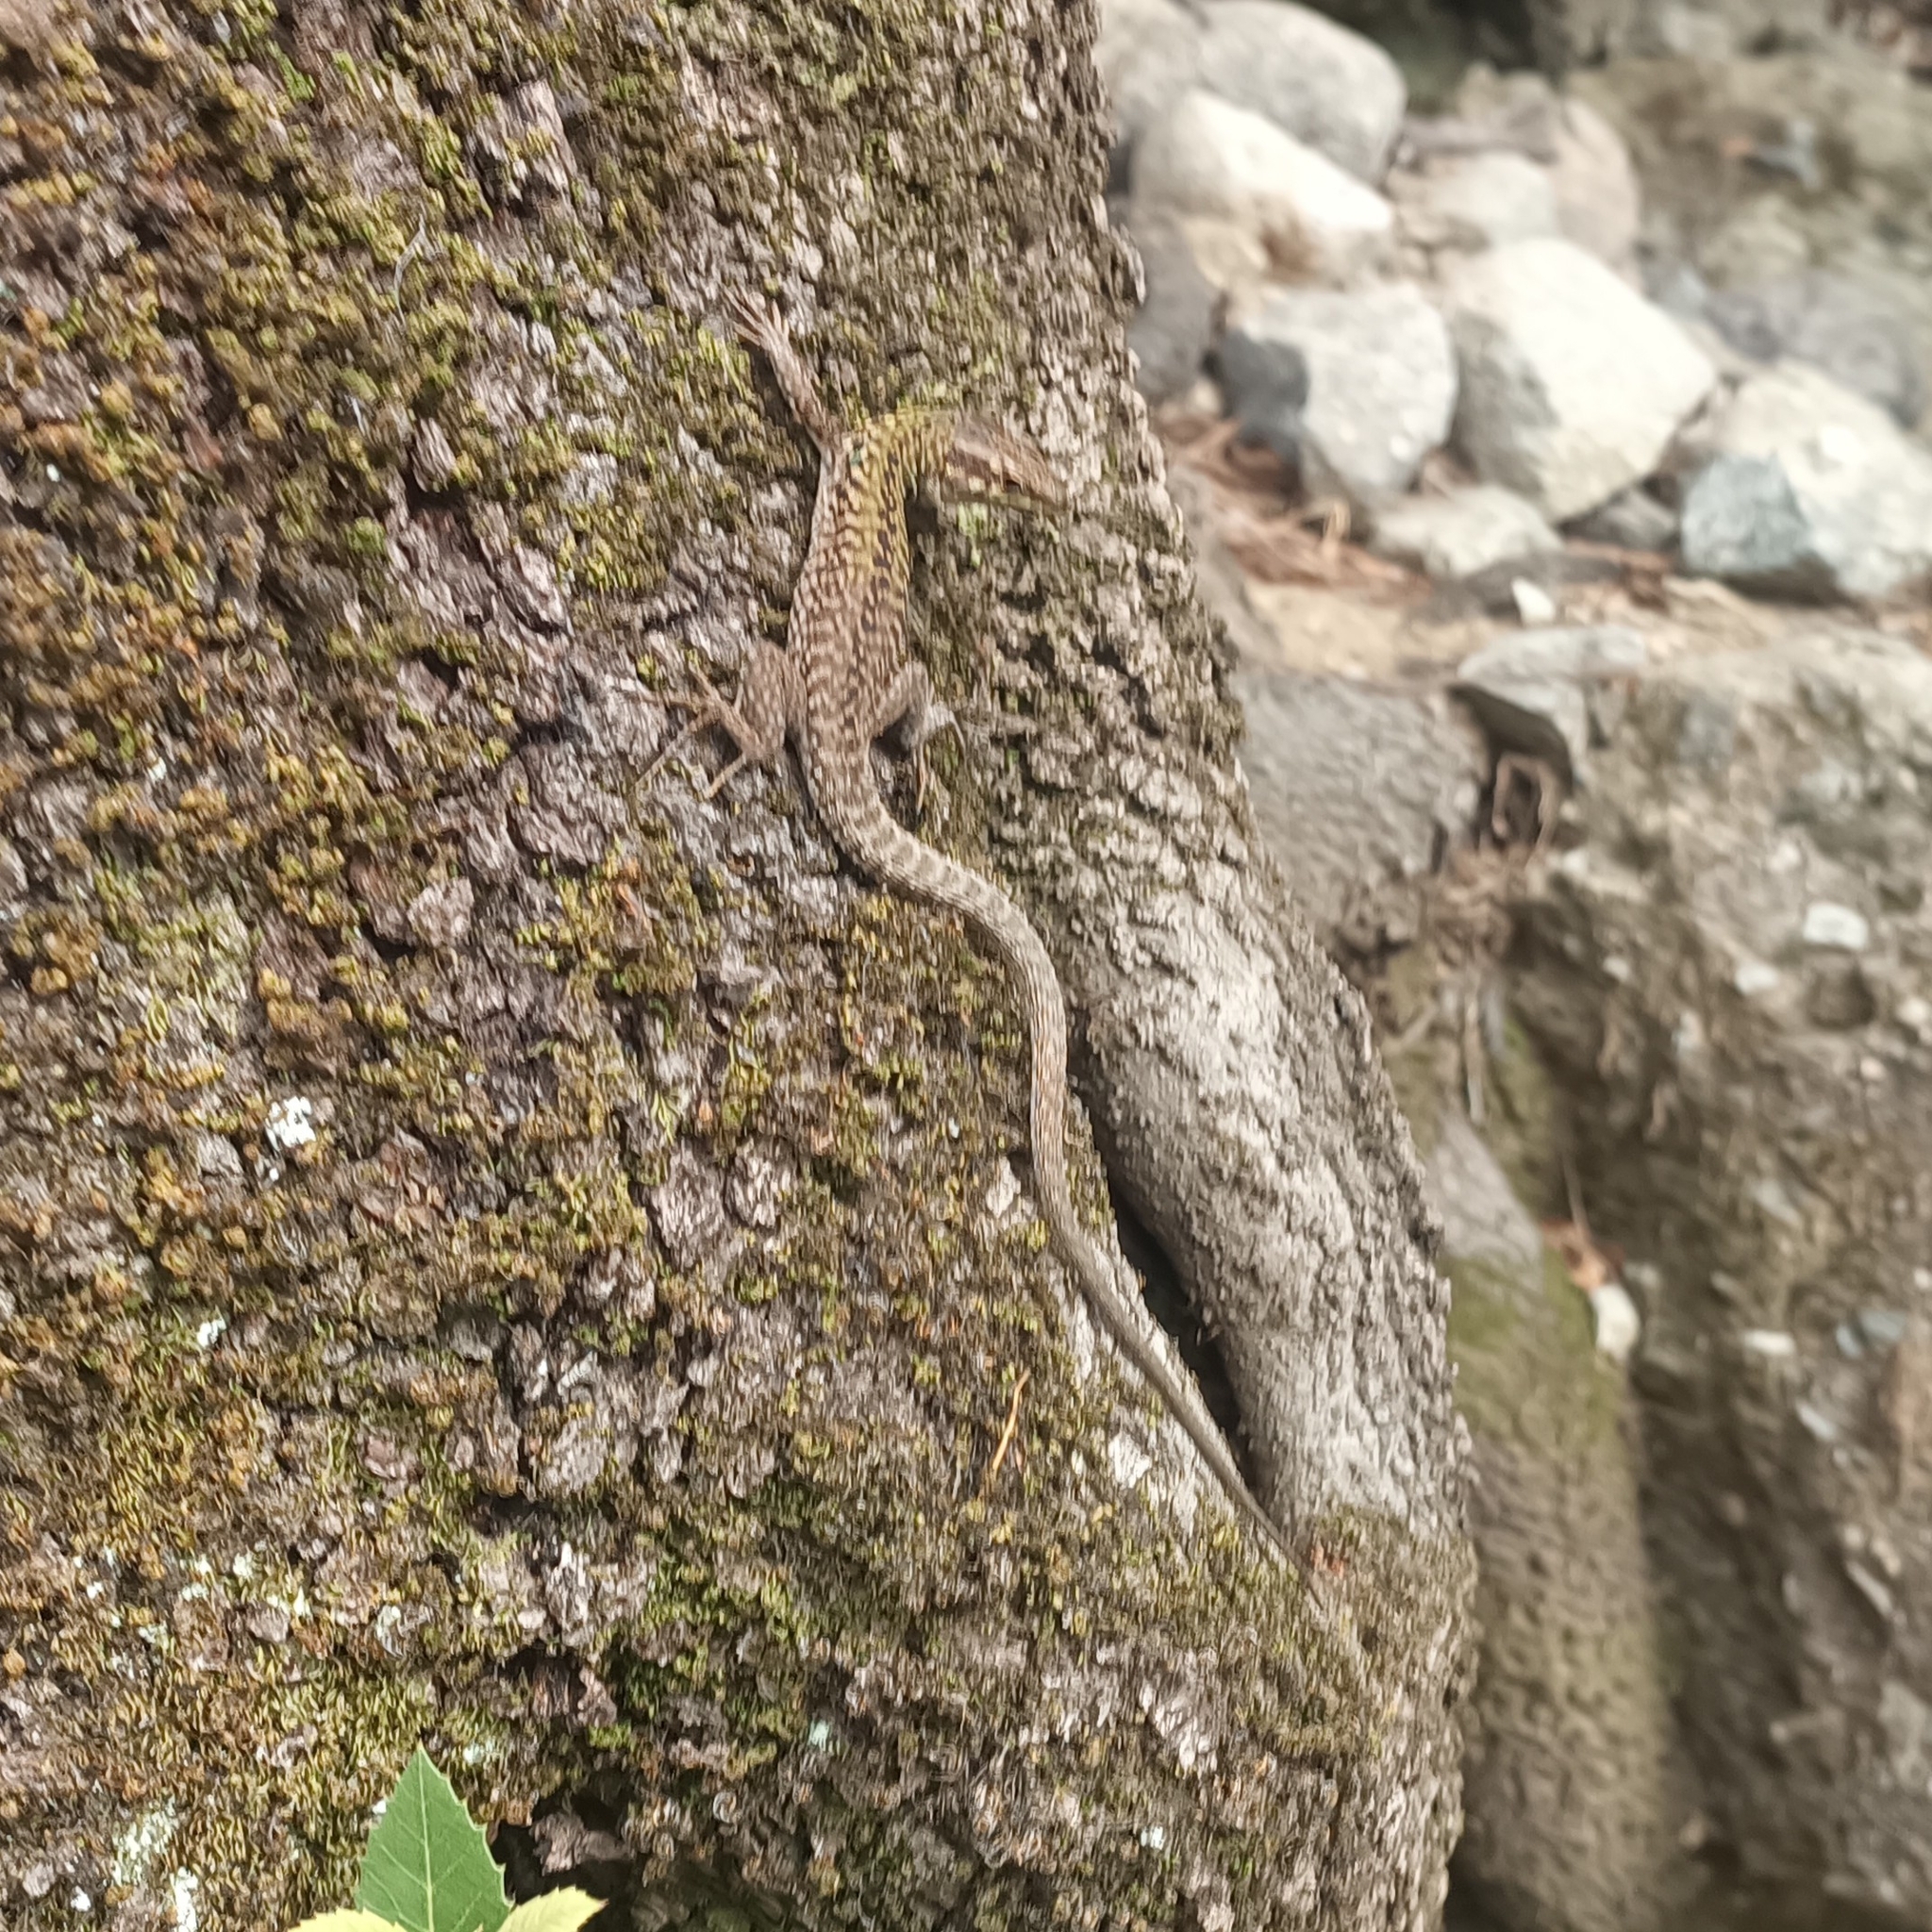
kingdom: Animalia
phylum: Chordata
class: Squamata
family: Lacertidae
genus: Podarcis
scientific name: Podarcis siculus
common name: Italian wall lizard
